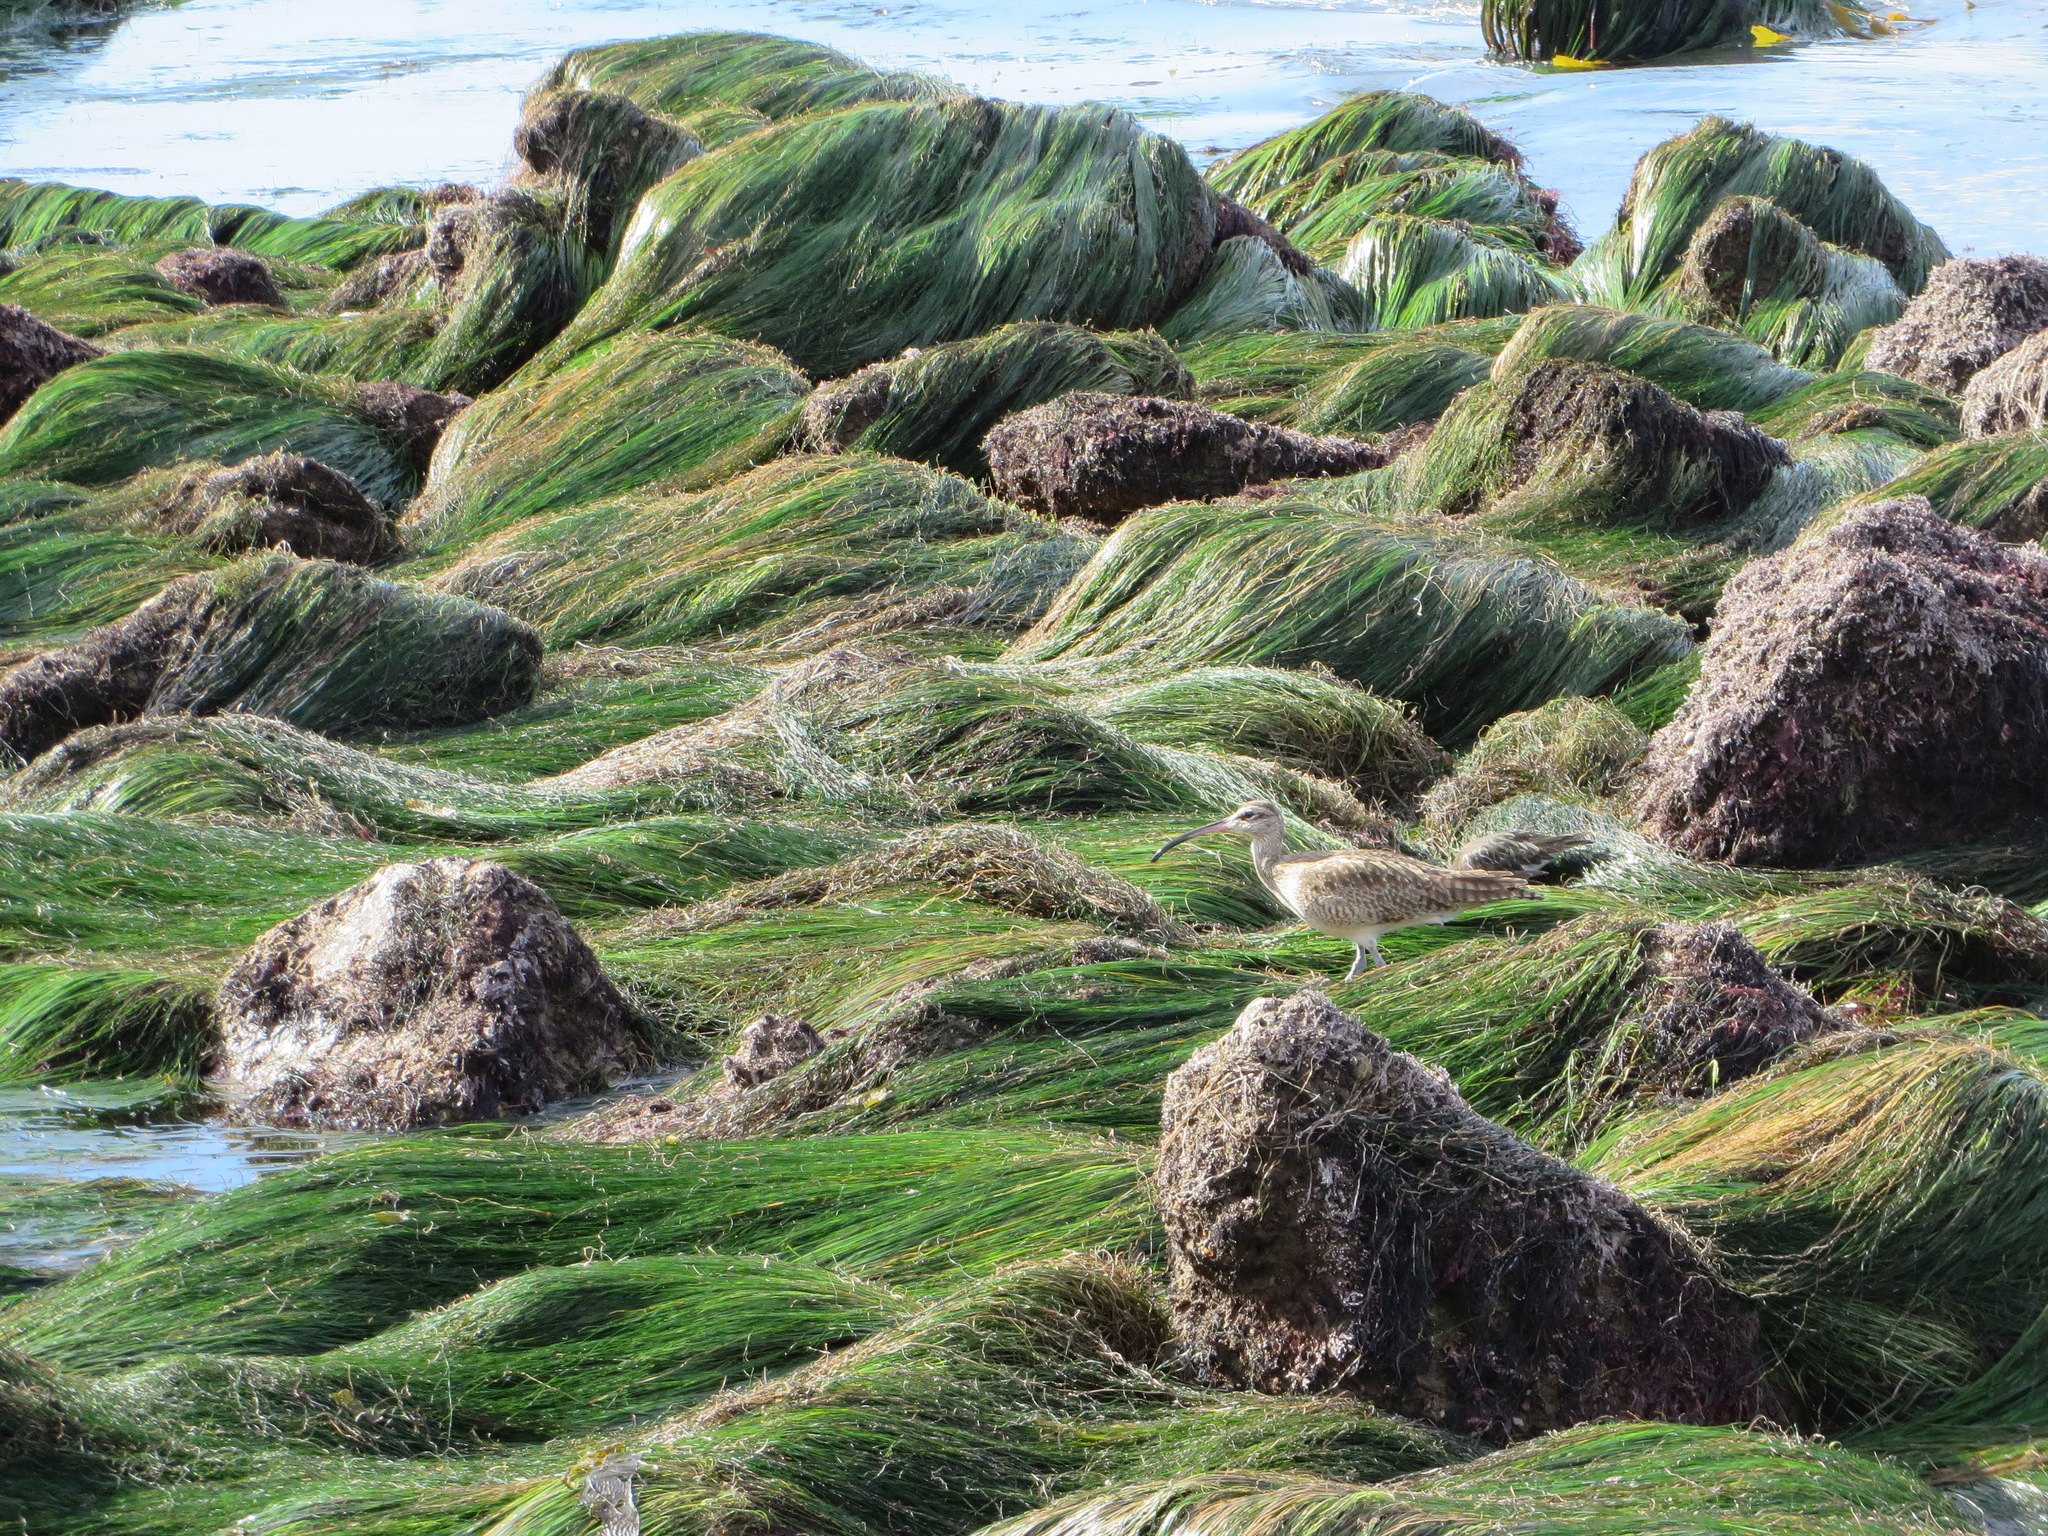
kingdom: Animalia
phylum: Chordata
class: Aves
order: Charadriiformes
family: Scolopacidae
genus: Numenius
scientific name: Numenius phaeopus
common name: Whimbrel
